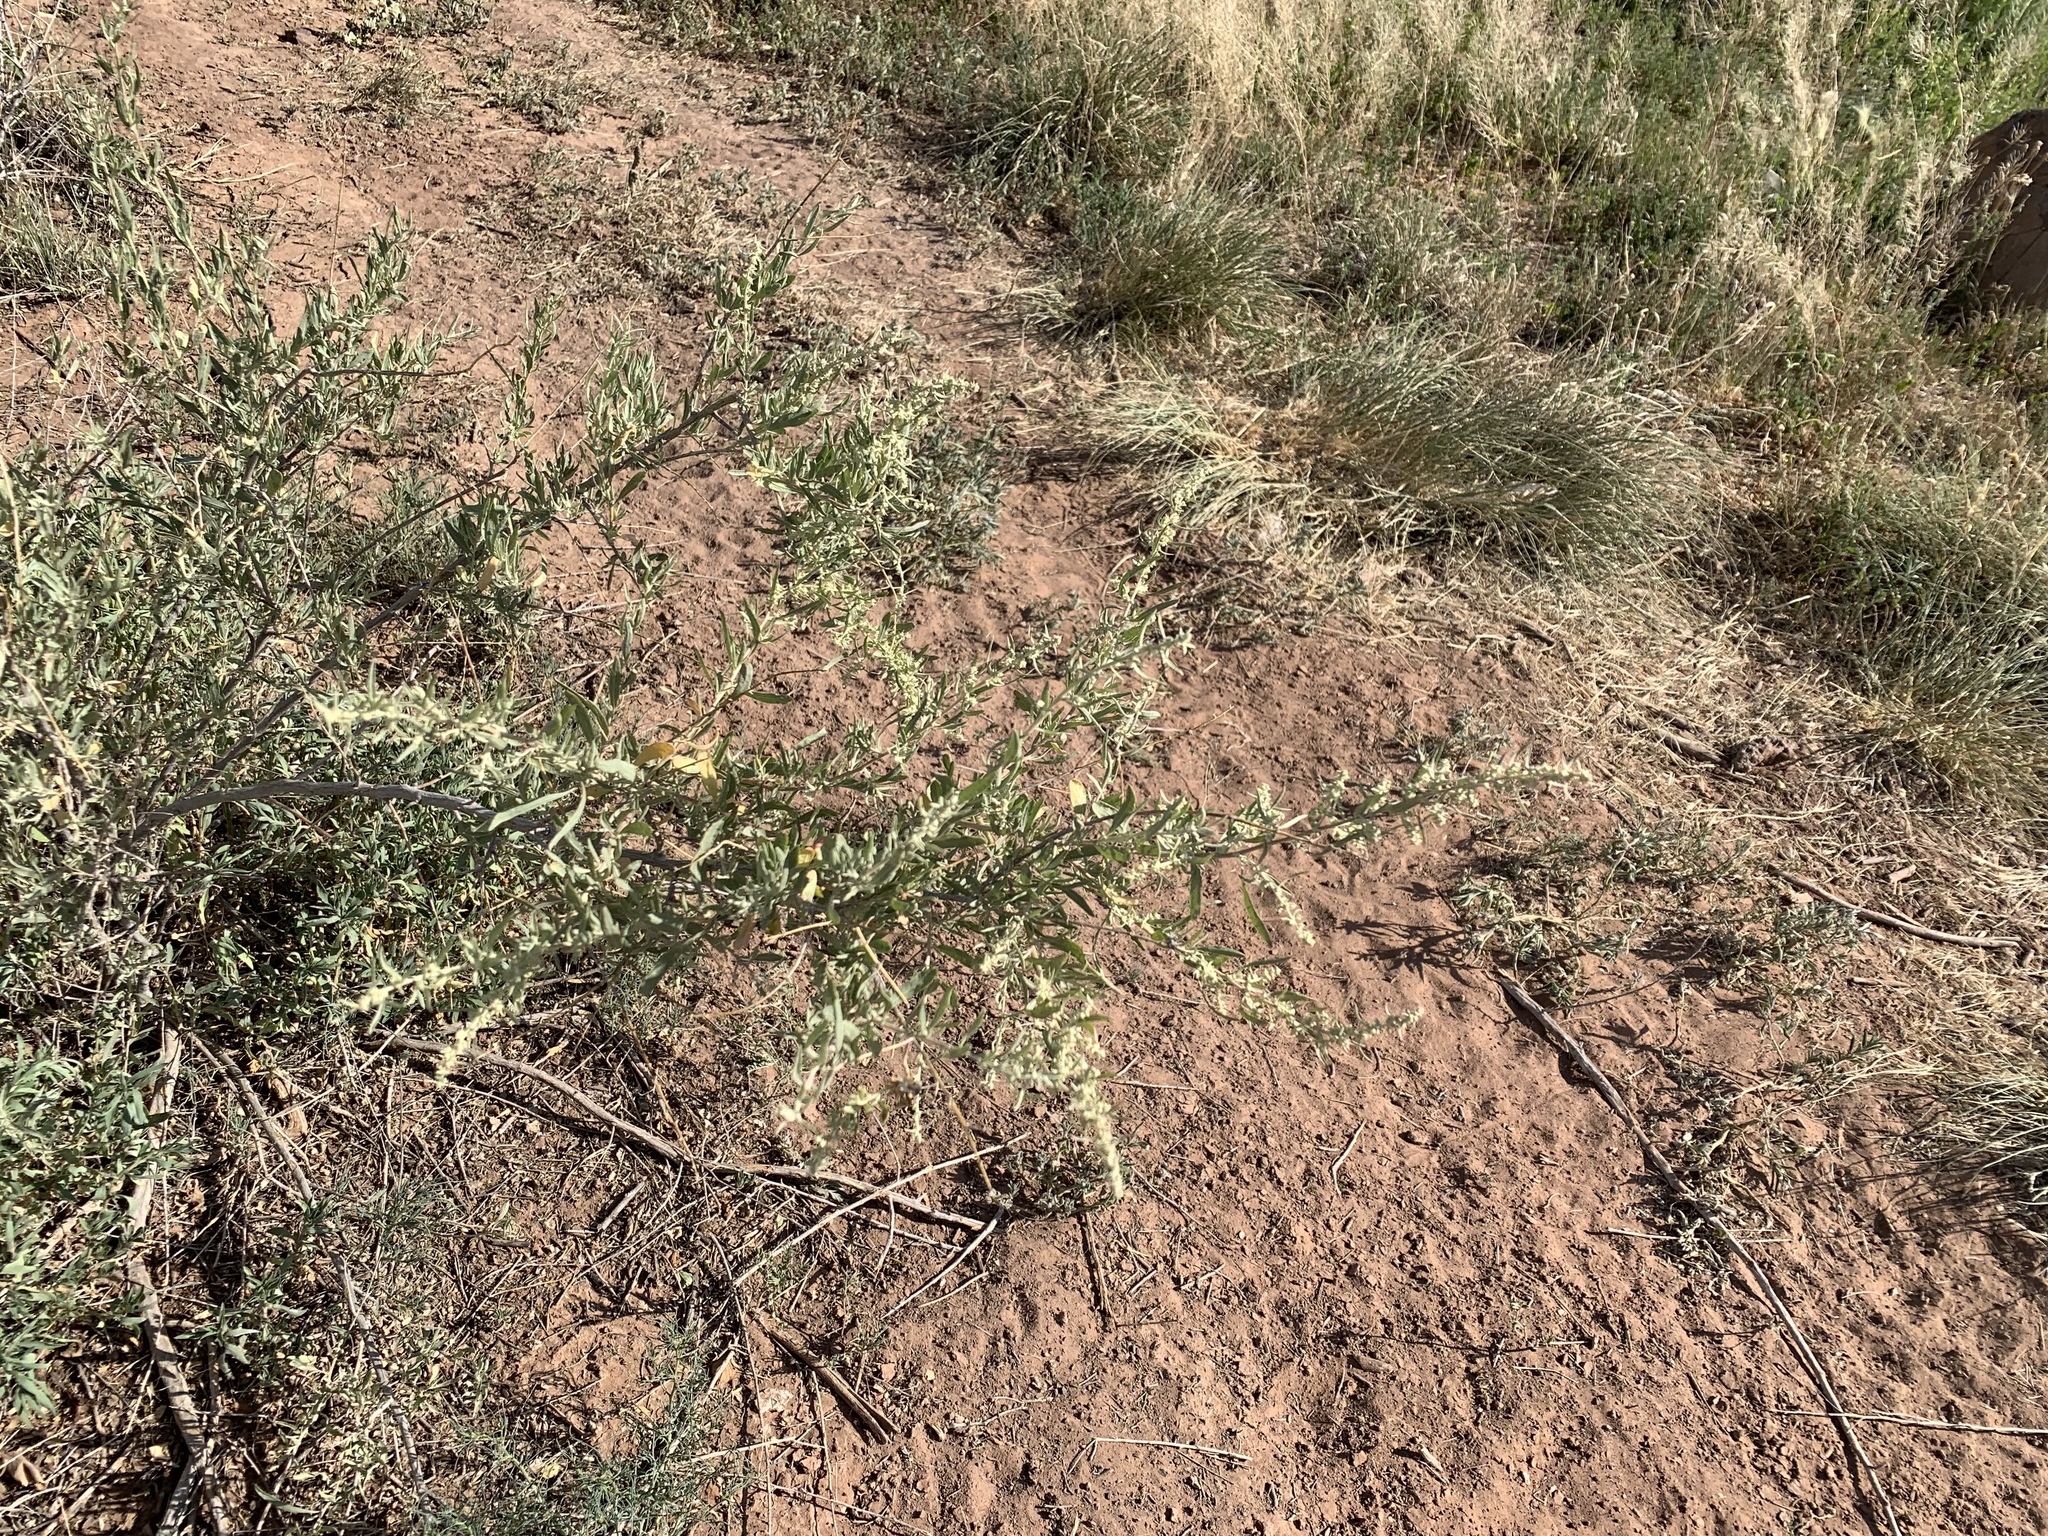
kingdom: Plantae
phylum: Tracheophyta
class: Magnoliopsida
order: Caryophyllales
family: Amaranthaceae
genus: Atriplex
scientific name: Atriplex canescens
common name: Four-wing saltbush
